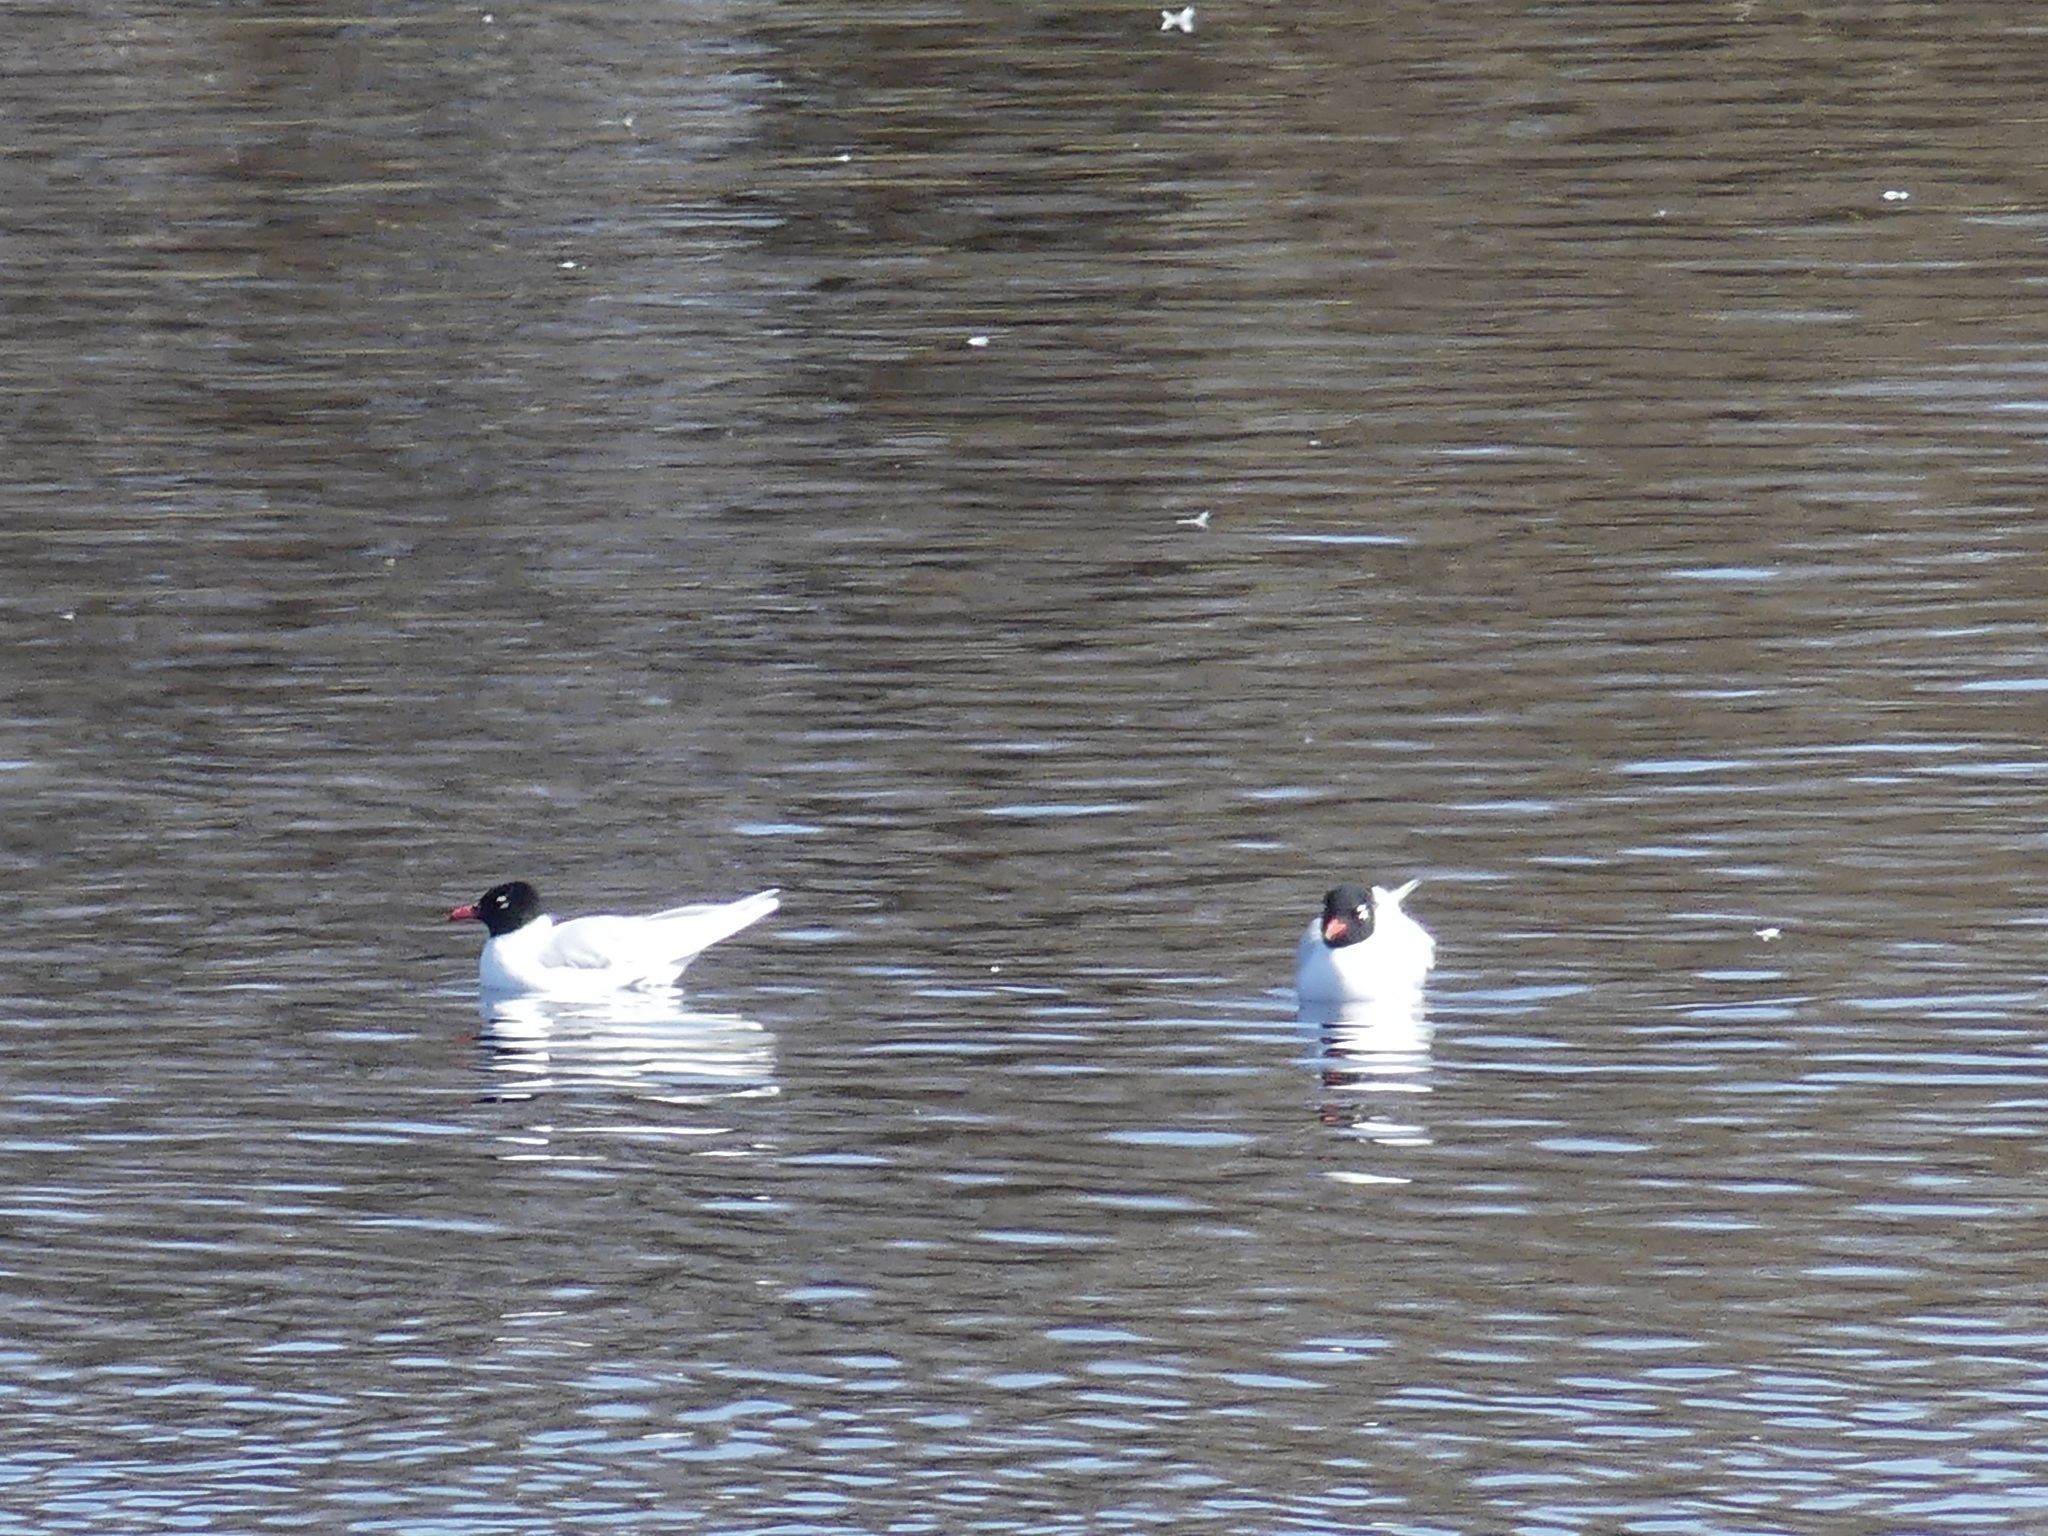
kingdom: Animalia
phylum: Chordata
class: Aves
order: Charadriiformes
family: Laridae
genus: Ichthyaetus
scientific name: Ichthyaetus melanocephalus
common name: Mediterranean gull
